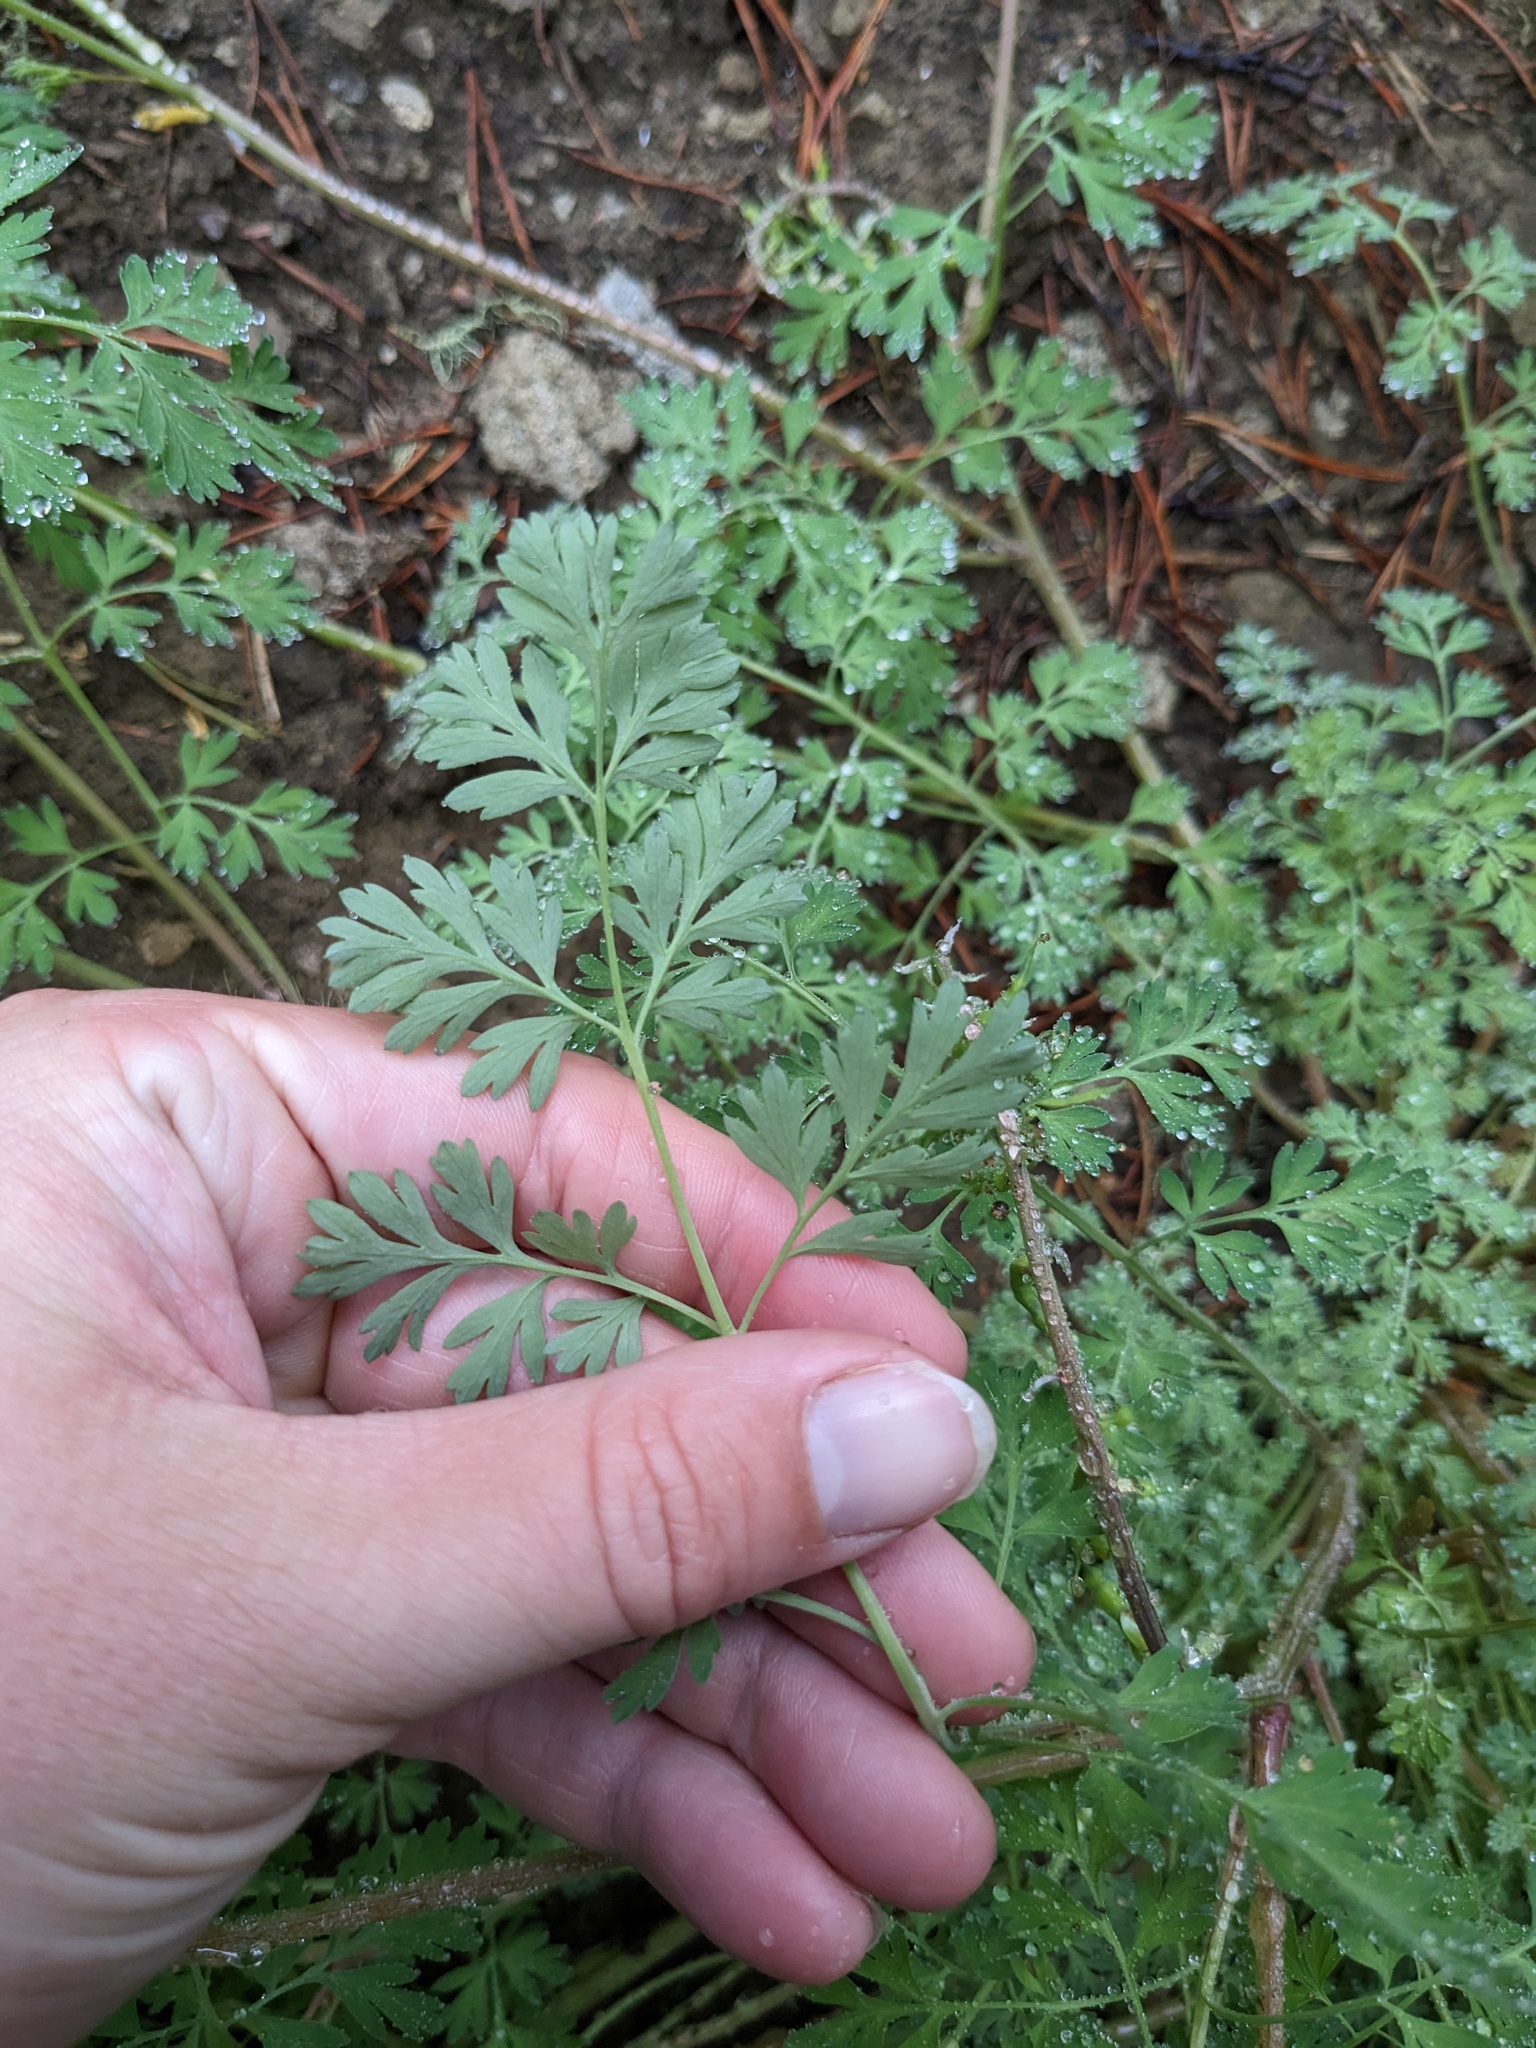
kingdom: Plantae
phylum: Tracheophyta
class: Magnoliopsida
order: Ranunculales
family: Papaveraceae
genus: Corydalis
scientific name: Corydalis aurea
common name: Golden corydalis
